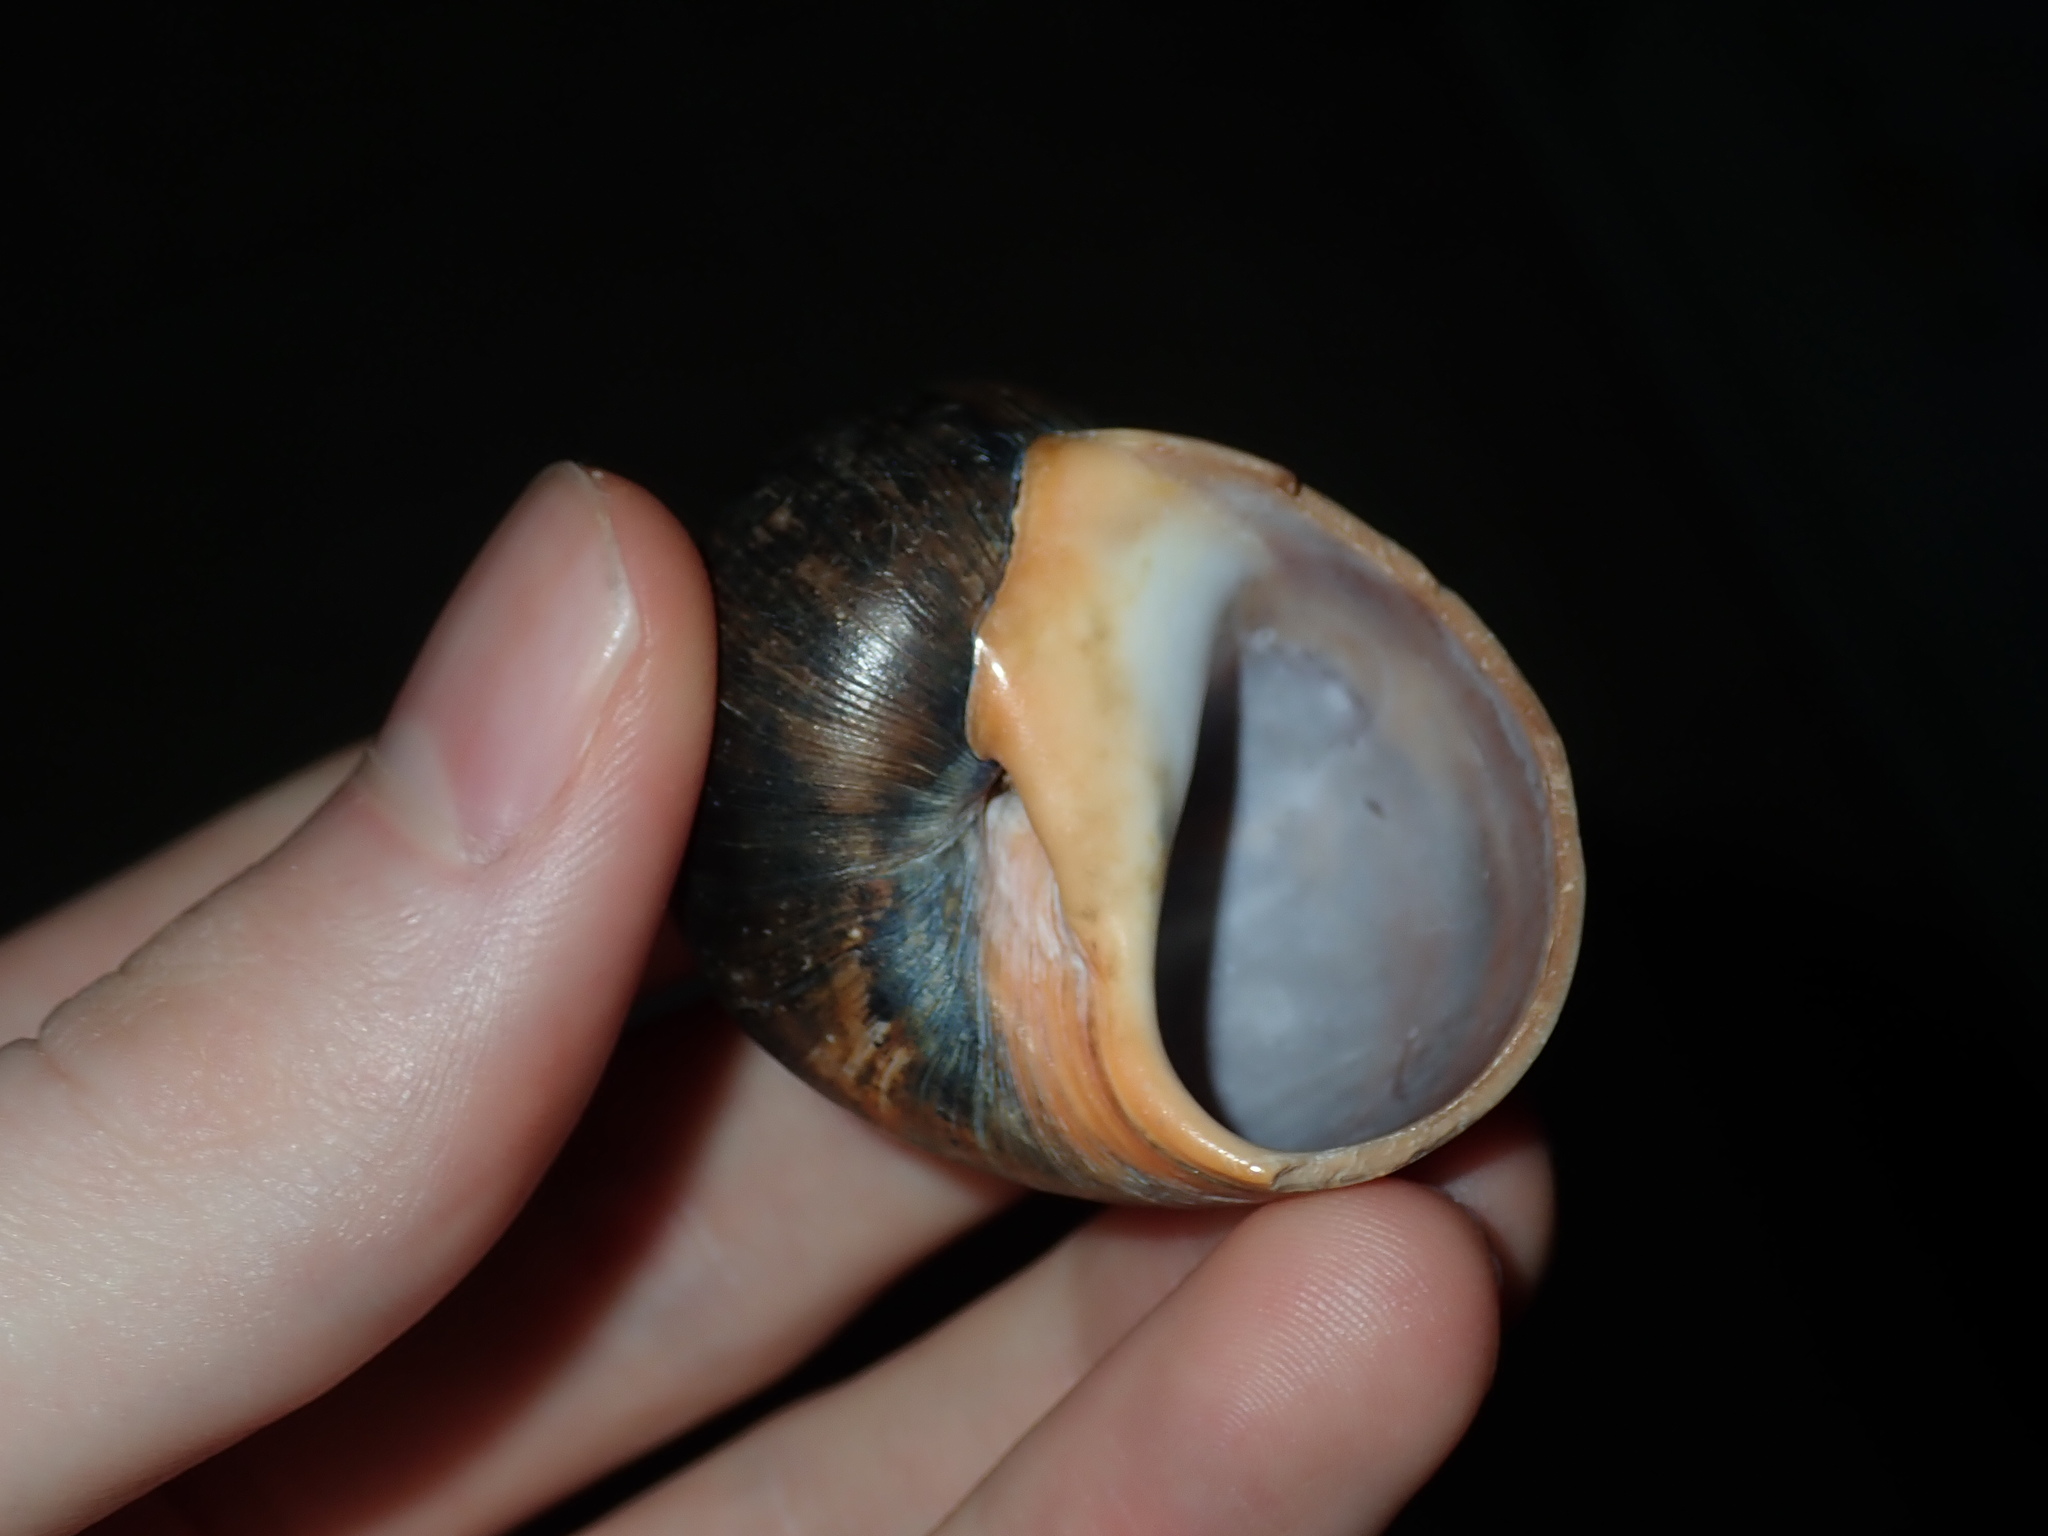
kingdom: Animalia
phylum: Mollusca
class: Gastropoda
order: Littorinimorpha
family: Naticidae
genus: Conuber
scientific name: Conuber sordidum
